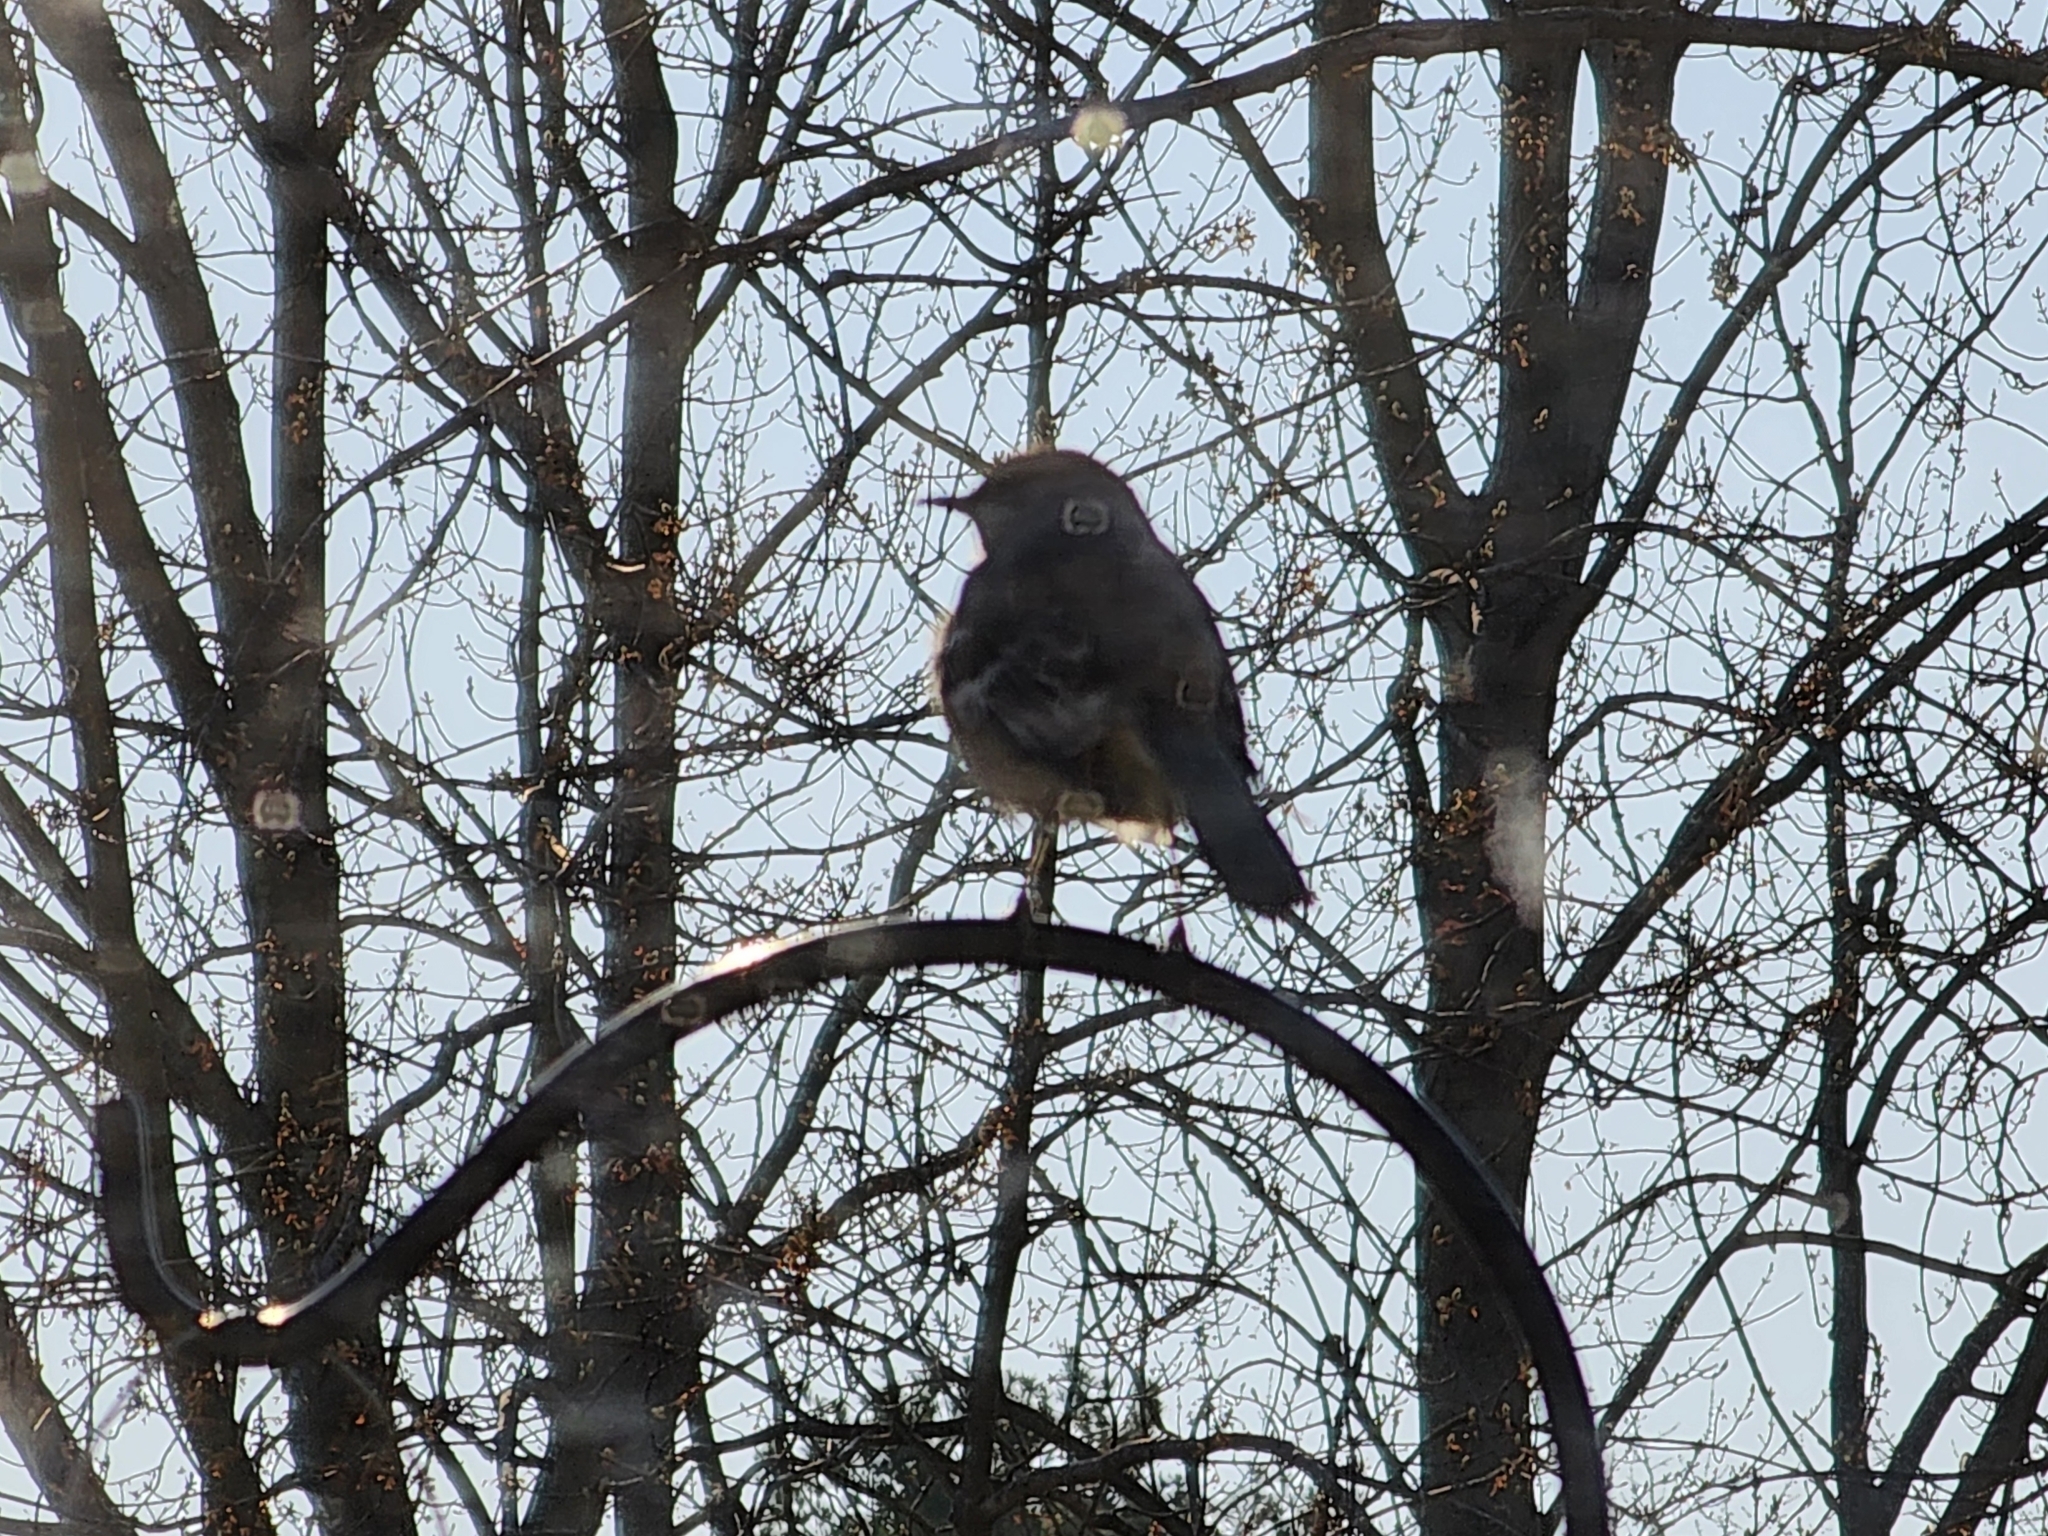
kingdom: Animalia
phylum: Chordata
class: Aves
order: Passeriformes
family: Mimidae
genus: Mimus
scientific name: Mimus polyglottos
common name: Northern mockingbird
